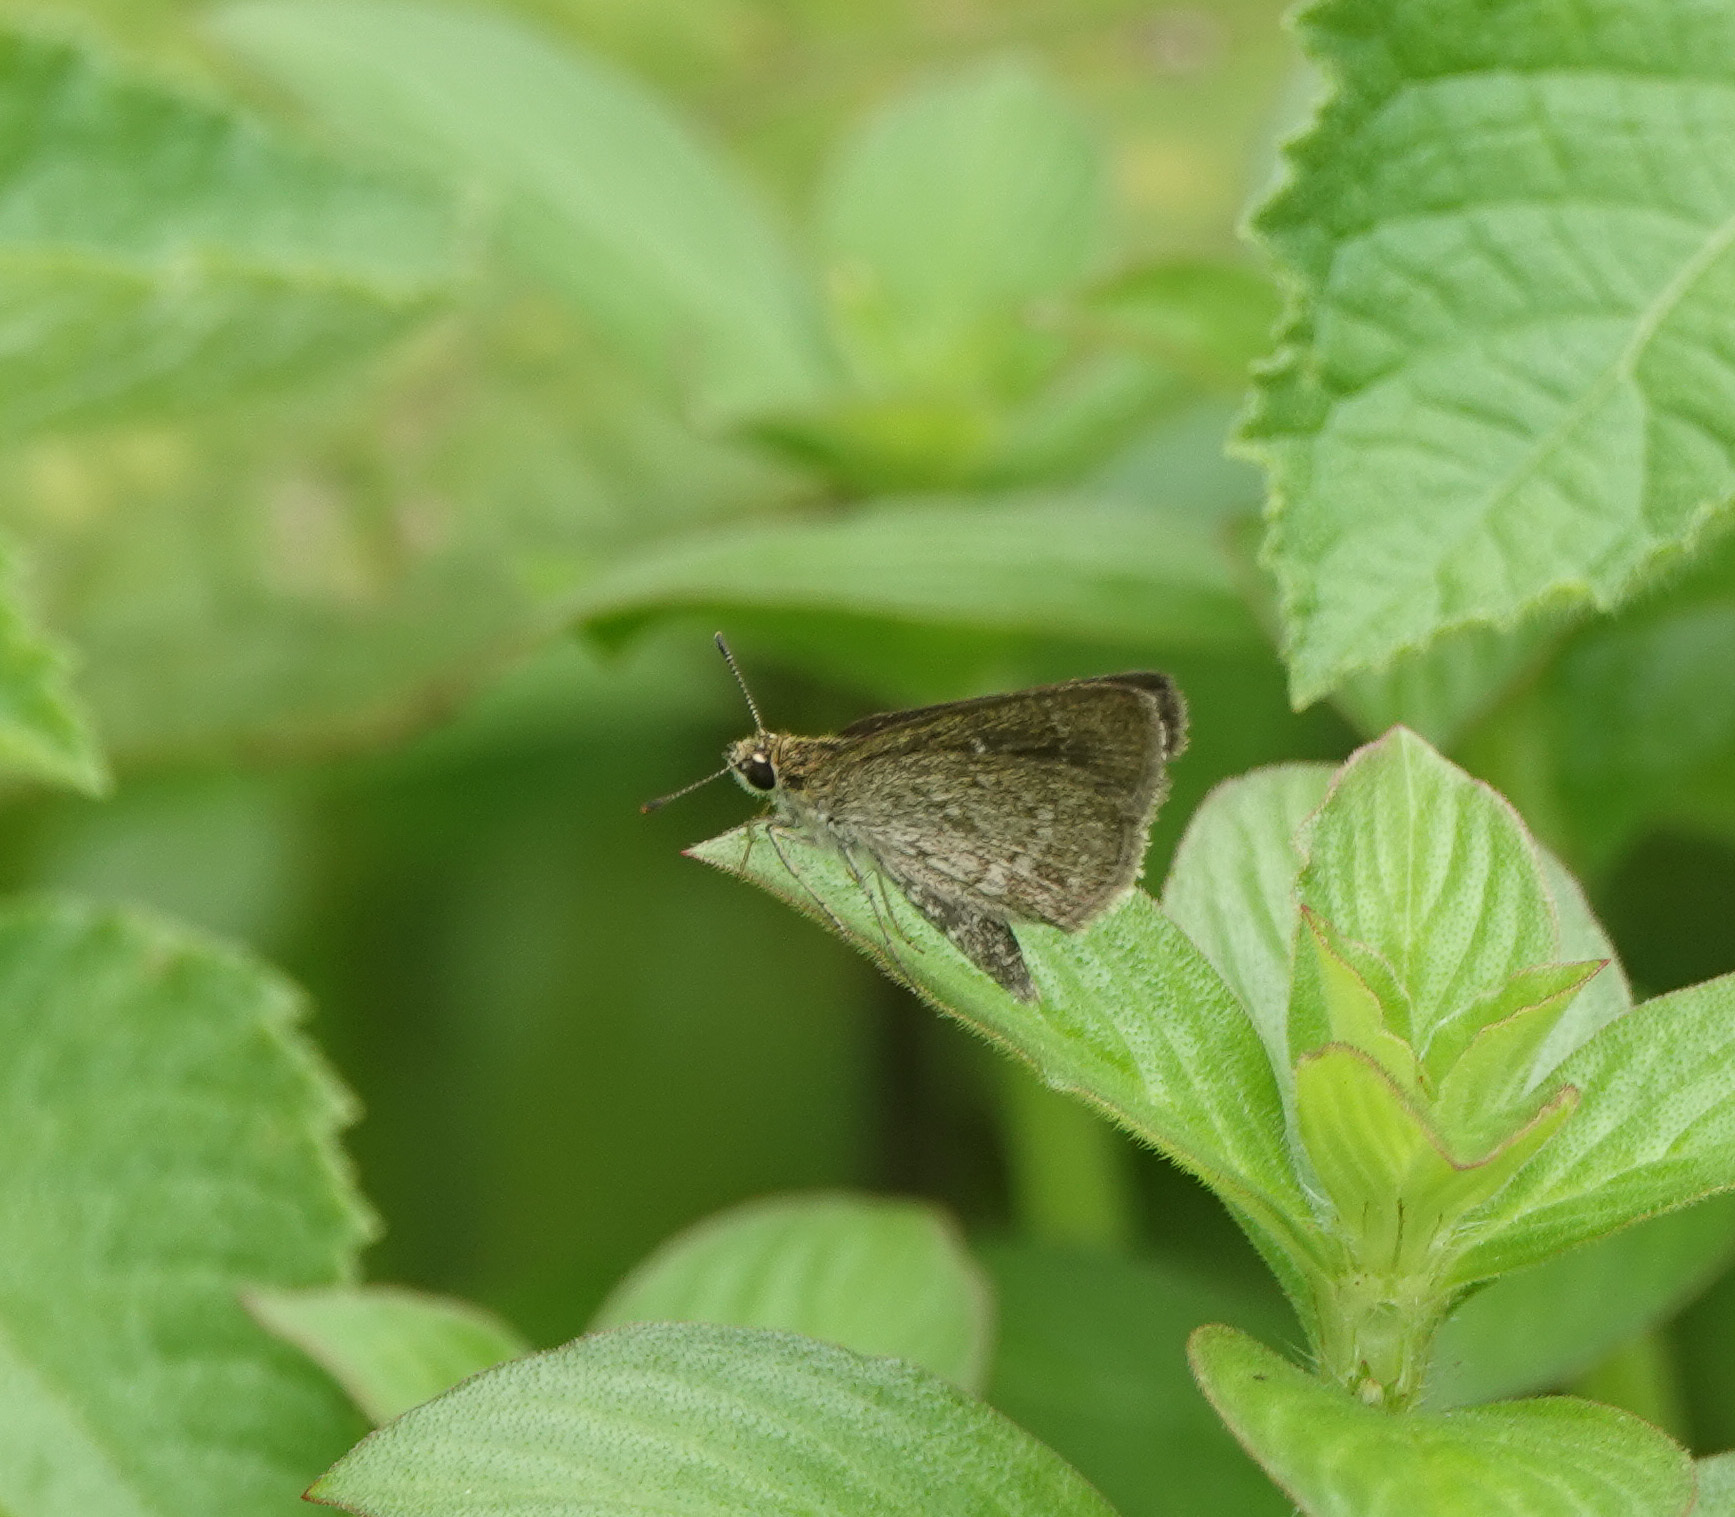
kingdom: Animalia
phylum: Arthropoda
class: Insecta
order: Lepidoptera
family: Hesperiidae
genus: Aeromachus
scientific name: Aeromachus pygmaeus
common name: Pygmy scrub hopper
